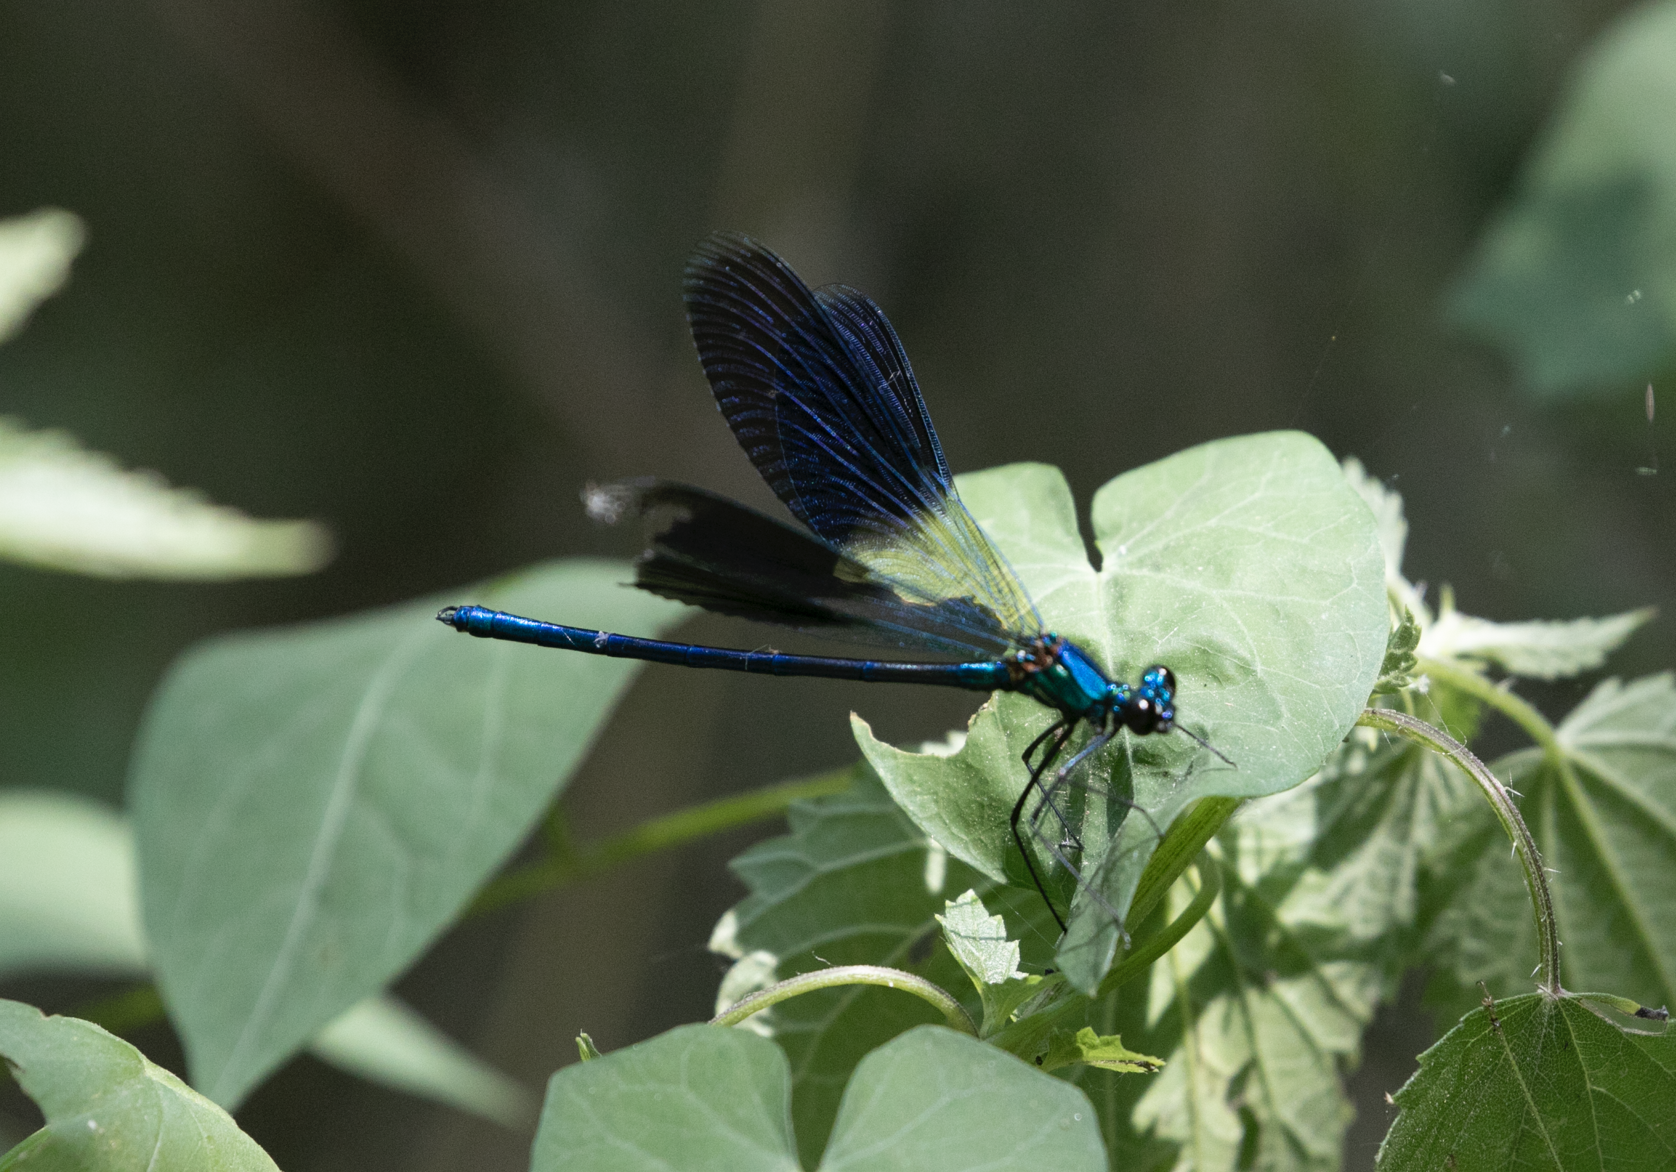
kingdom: Animalia
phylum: Arthropoda
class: Insecta
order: Odonata
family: Calopterygidae
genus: Calopteryx
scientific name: Calopteryx splendens
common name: Banded demoiselle
